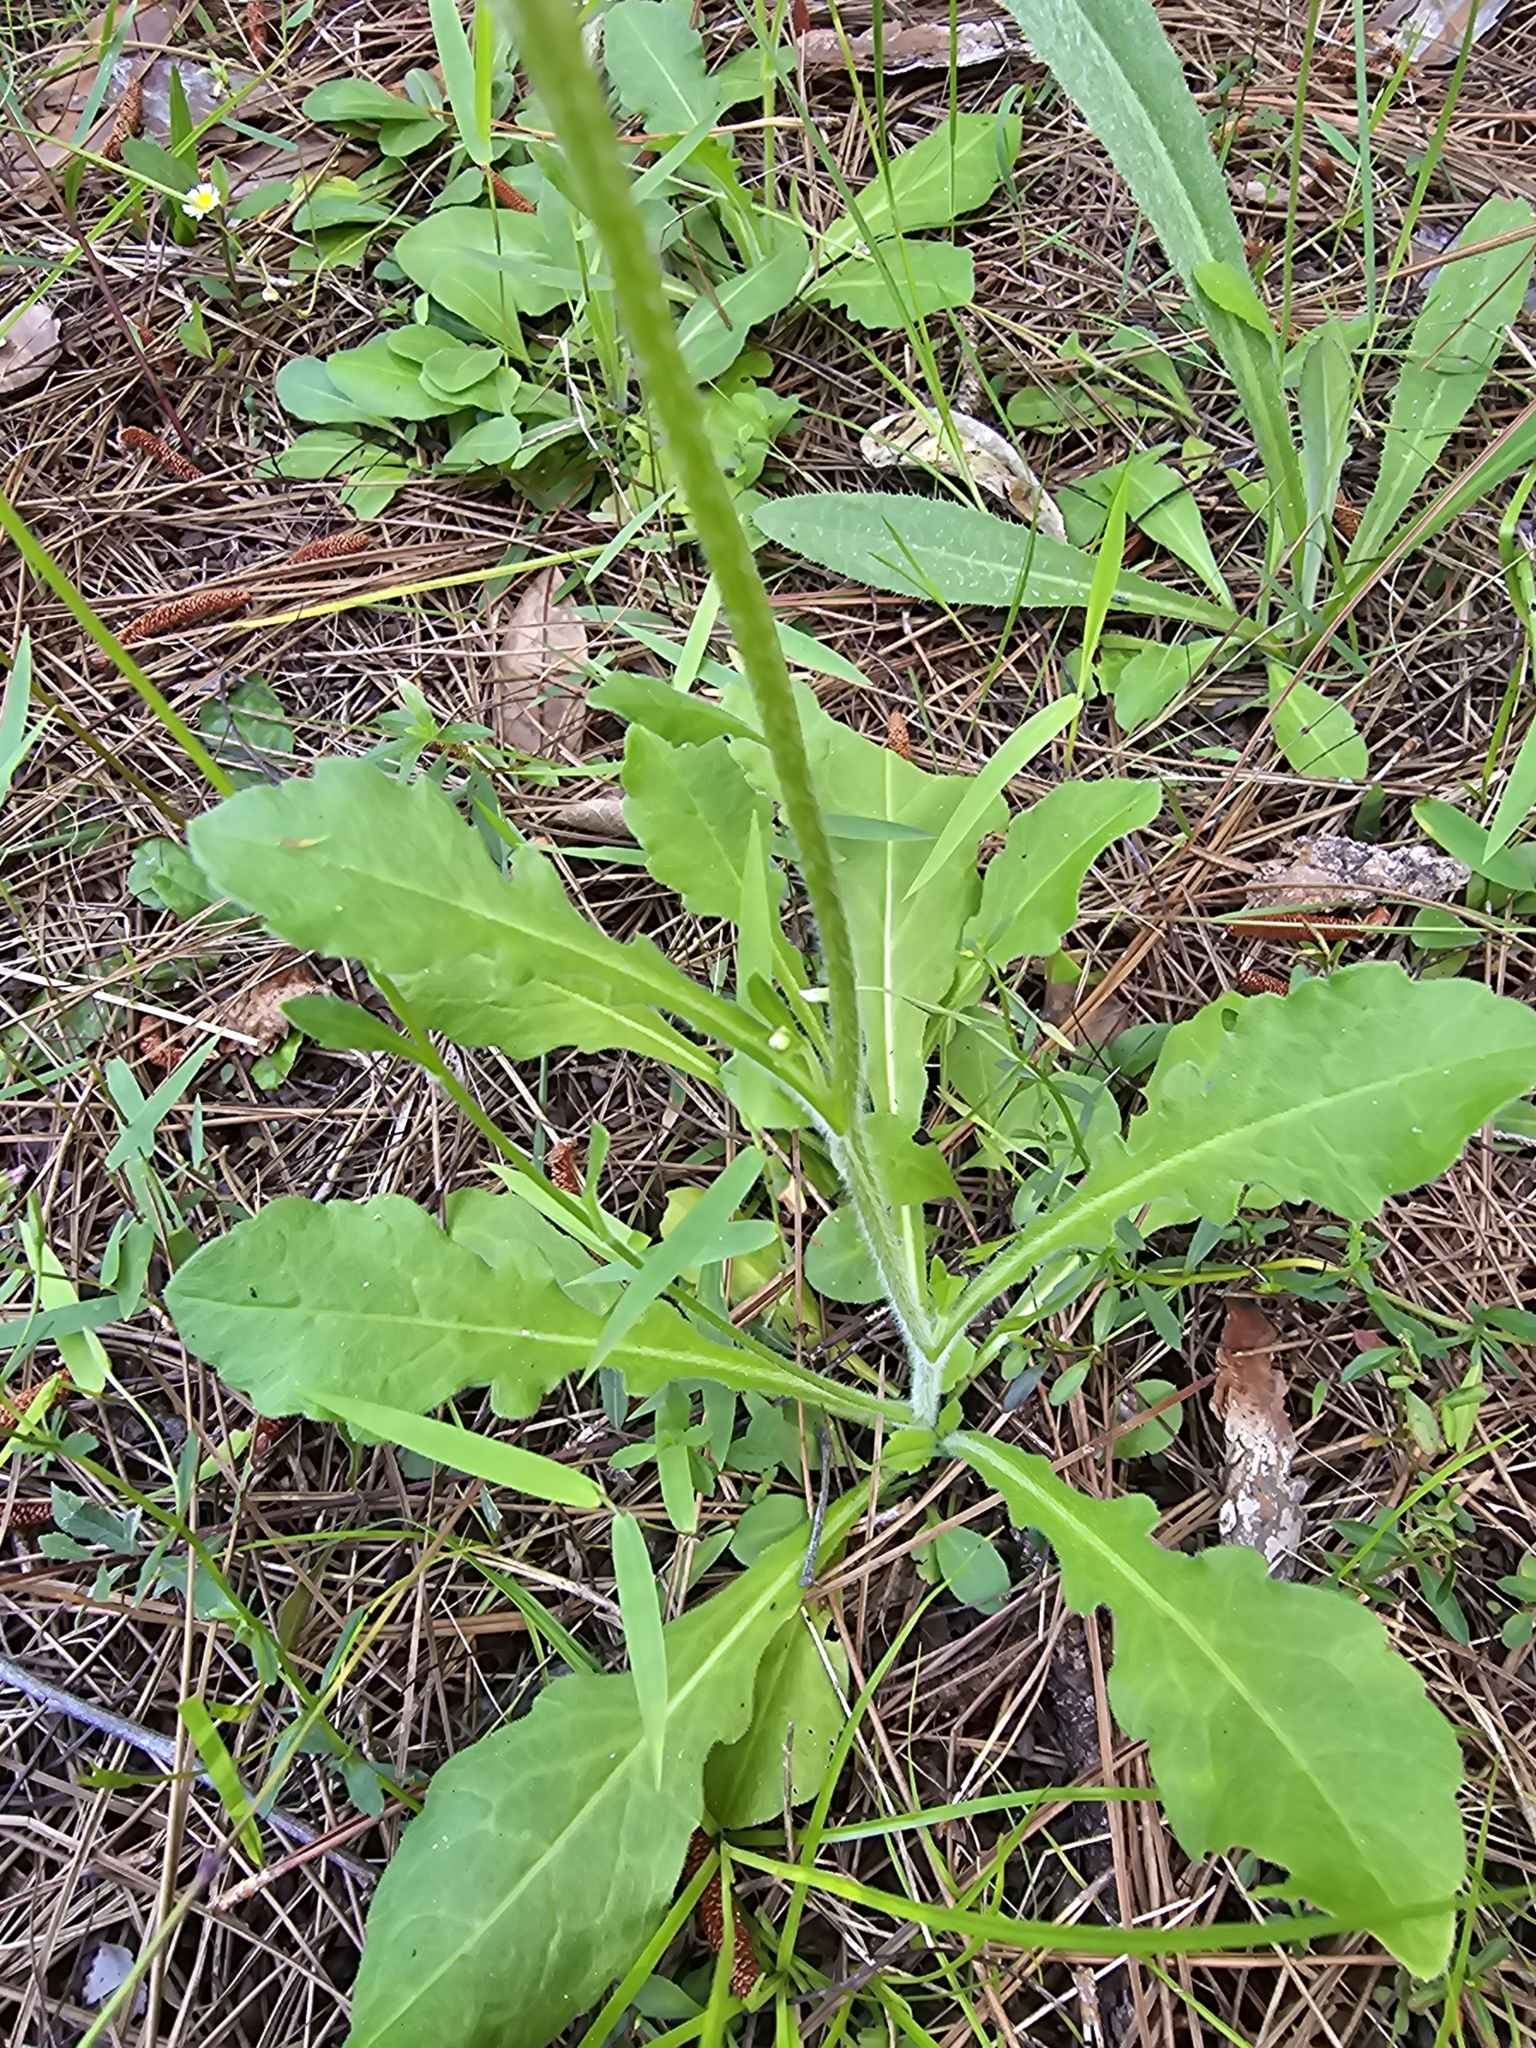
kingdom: Plantae
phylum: Tracheophyta
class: Magnoliopsida
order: Asterales
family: Asteraceae
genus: Erigeron
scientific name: Erigeron quercifolius
